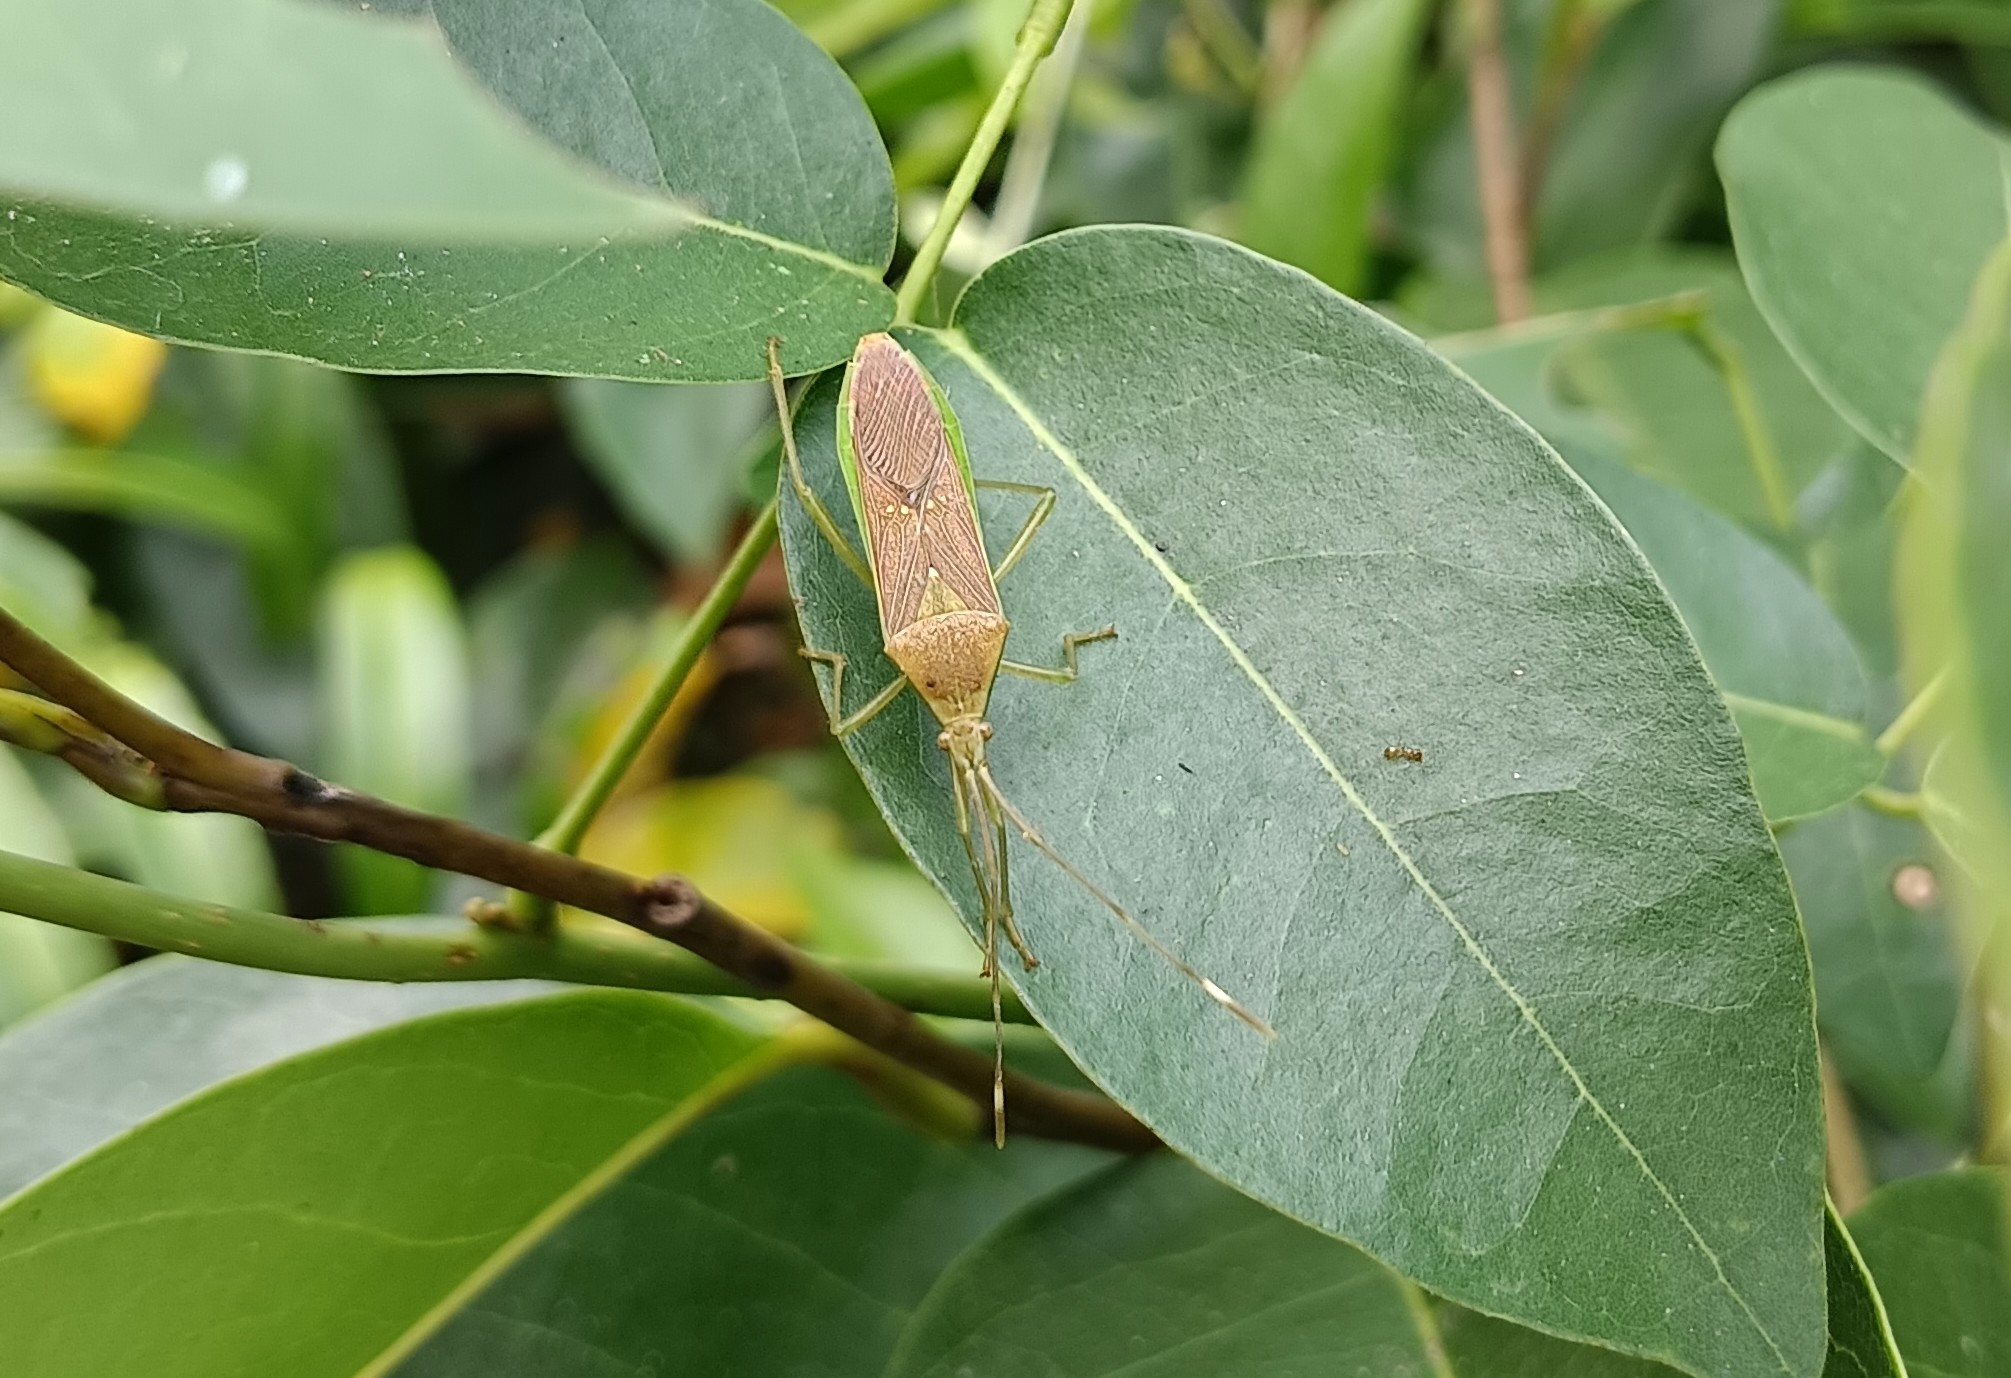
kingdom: Animalia
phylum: Arthropoda
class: Insecta
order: Hemiptera
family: Coreidae
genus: Homoeocerus
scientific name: Homoeocerus relatus
